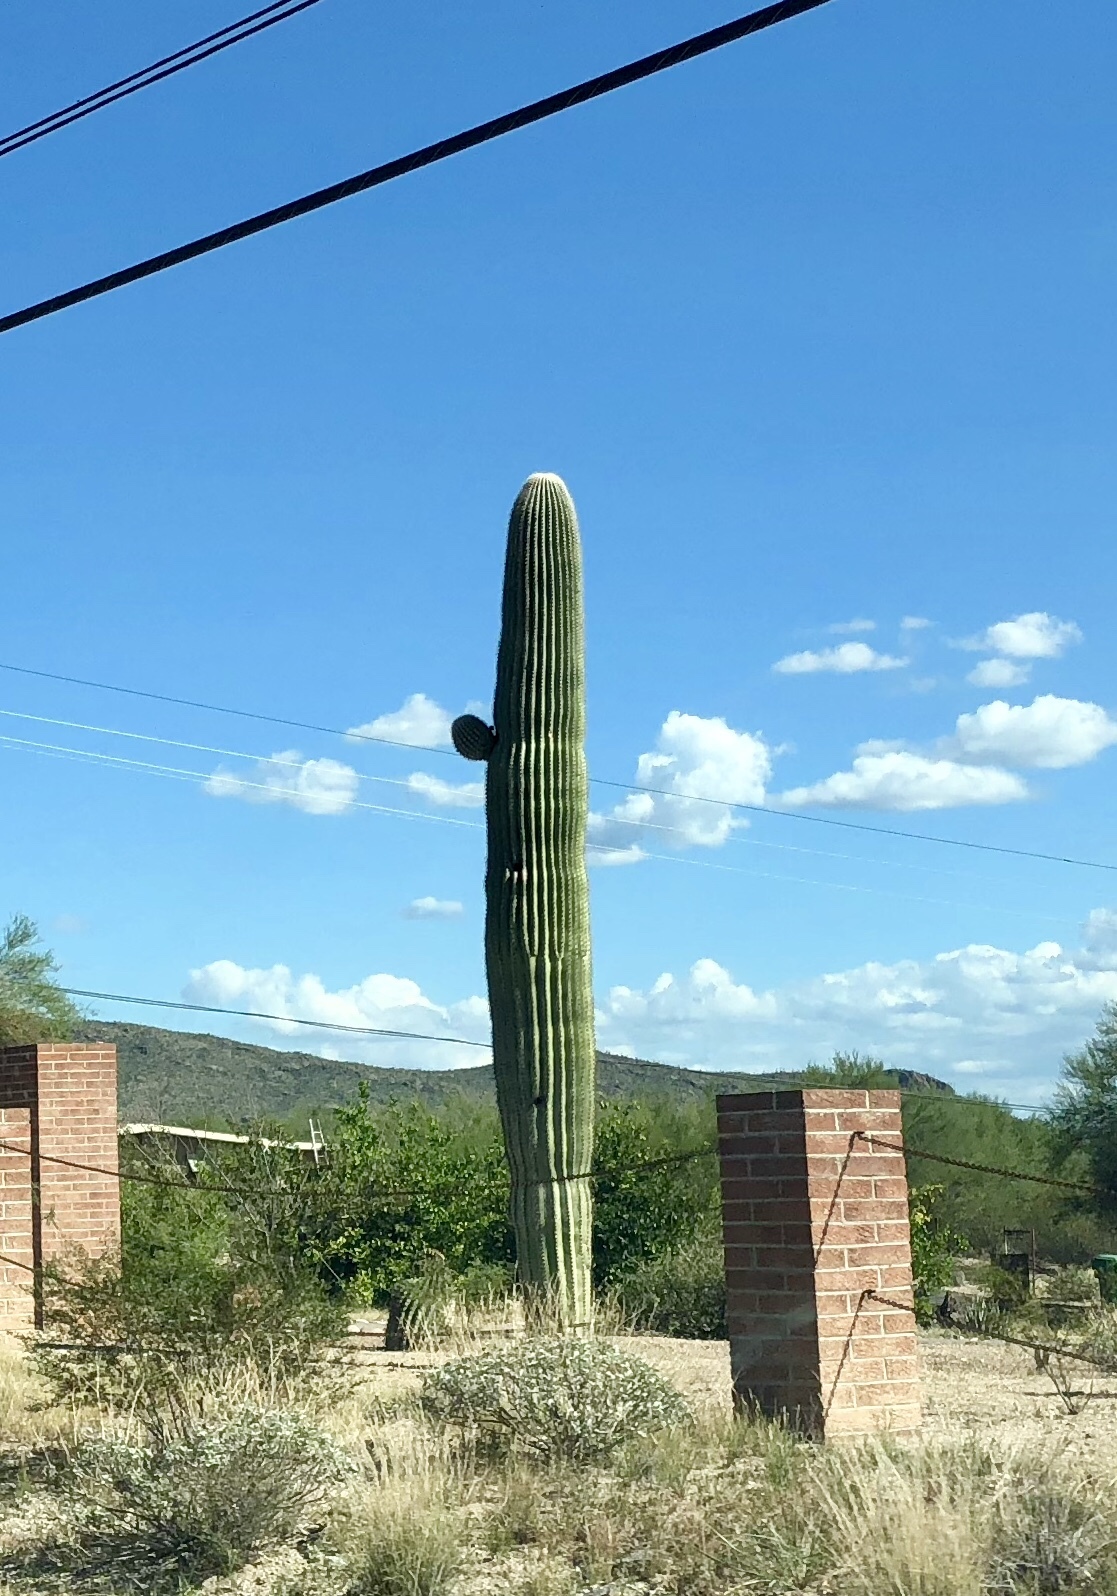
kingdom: Plantae
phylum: Tracheophyta
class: Magnoliopsida
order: Caryophyllales
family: Cactaceae
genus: Carnegiea
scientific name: Carnegiea gigantea
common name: Saguaro
